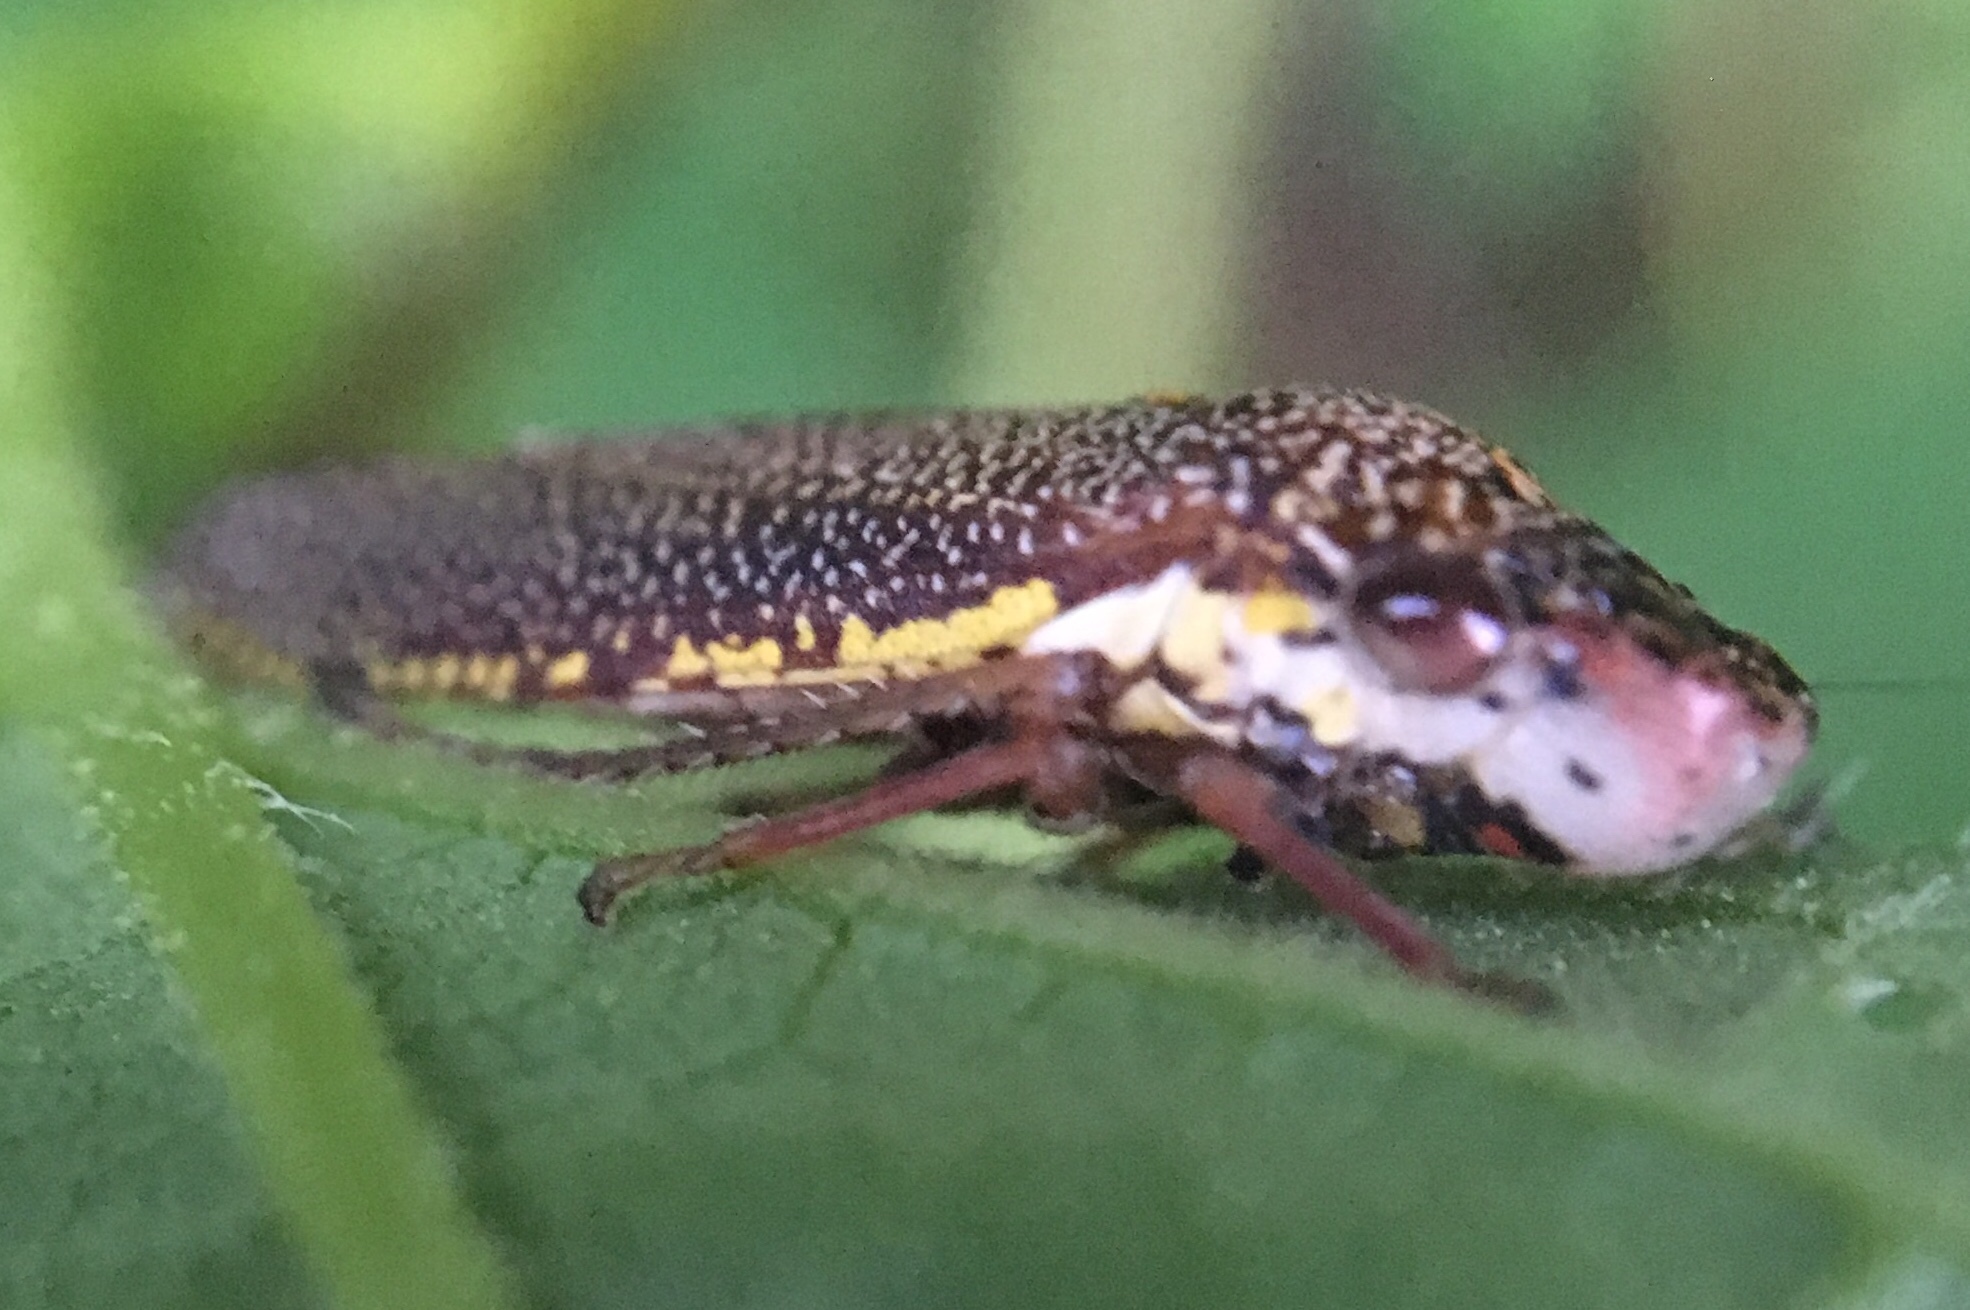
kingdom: Animalia
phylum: Arthropoda
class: Insecta
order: Hemiptera
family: Cicadellidae
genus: Paraulacizes
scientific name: Paraulacizes irrorata
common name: Speckled sharpshooter
